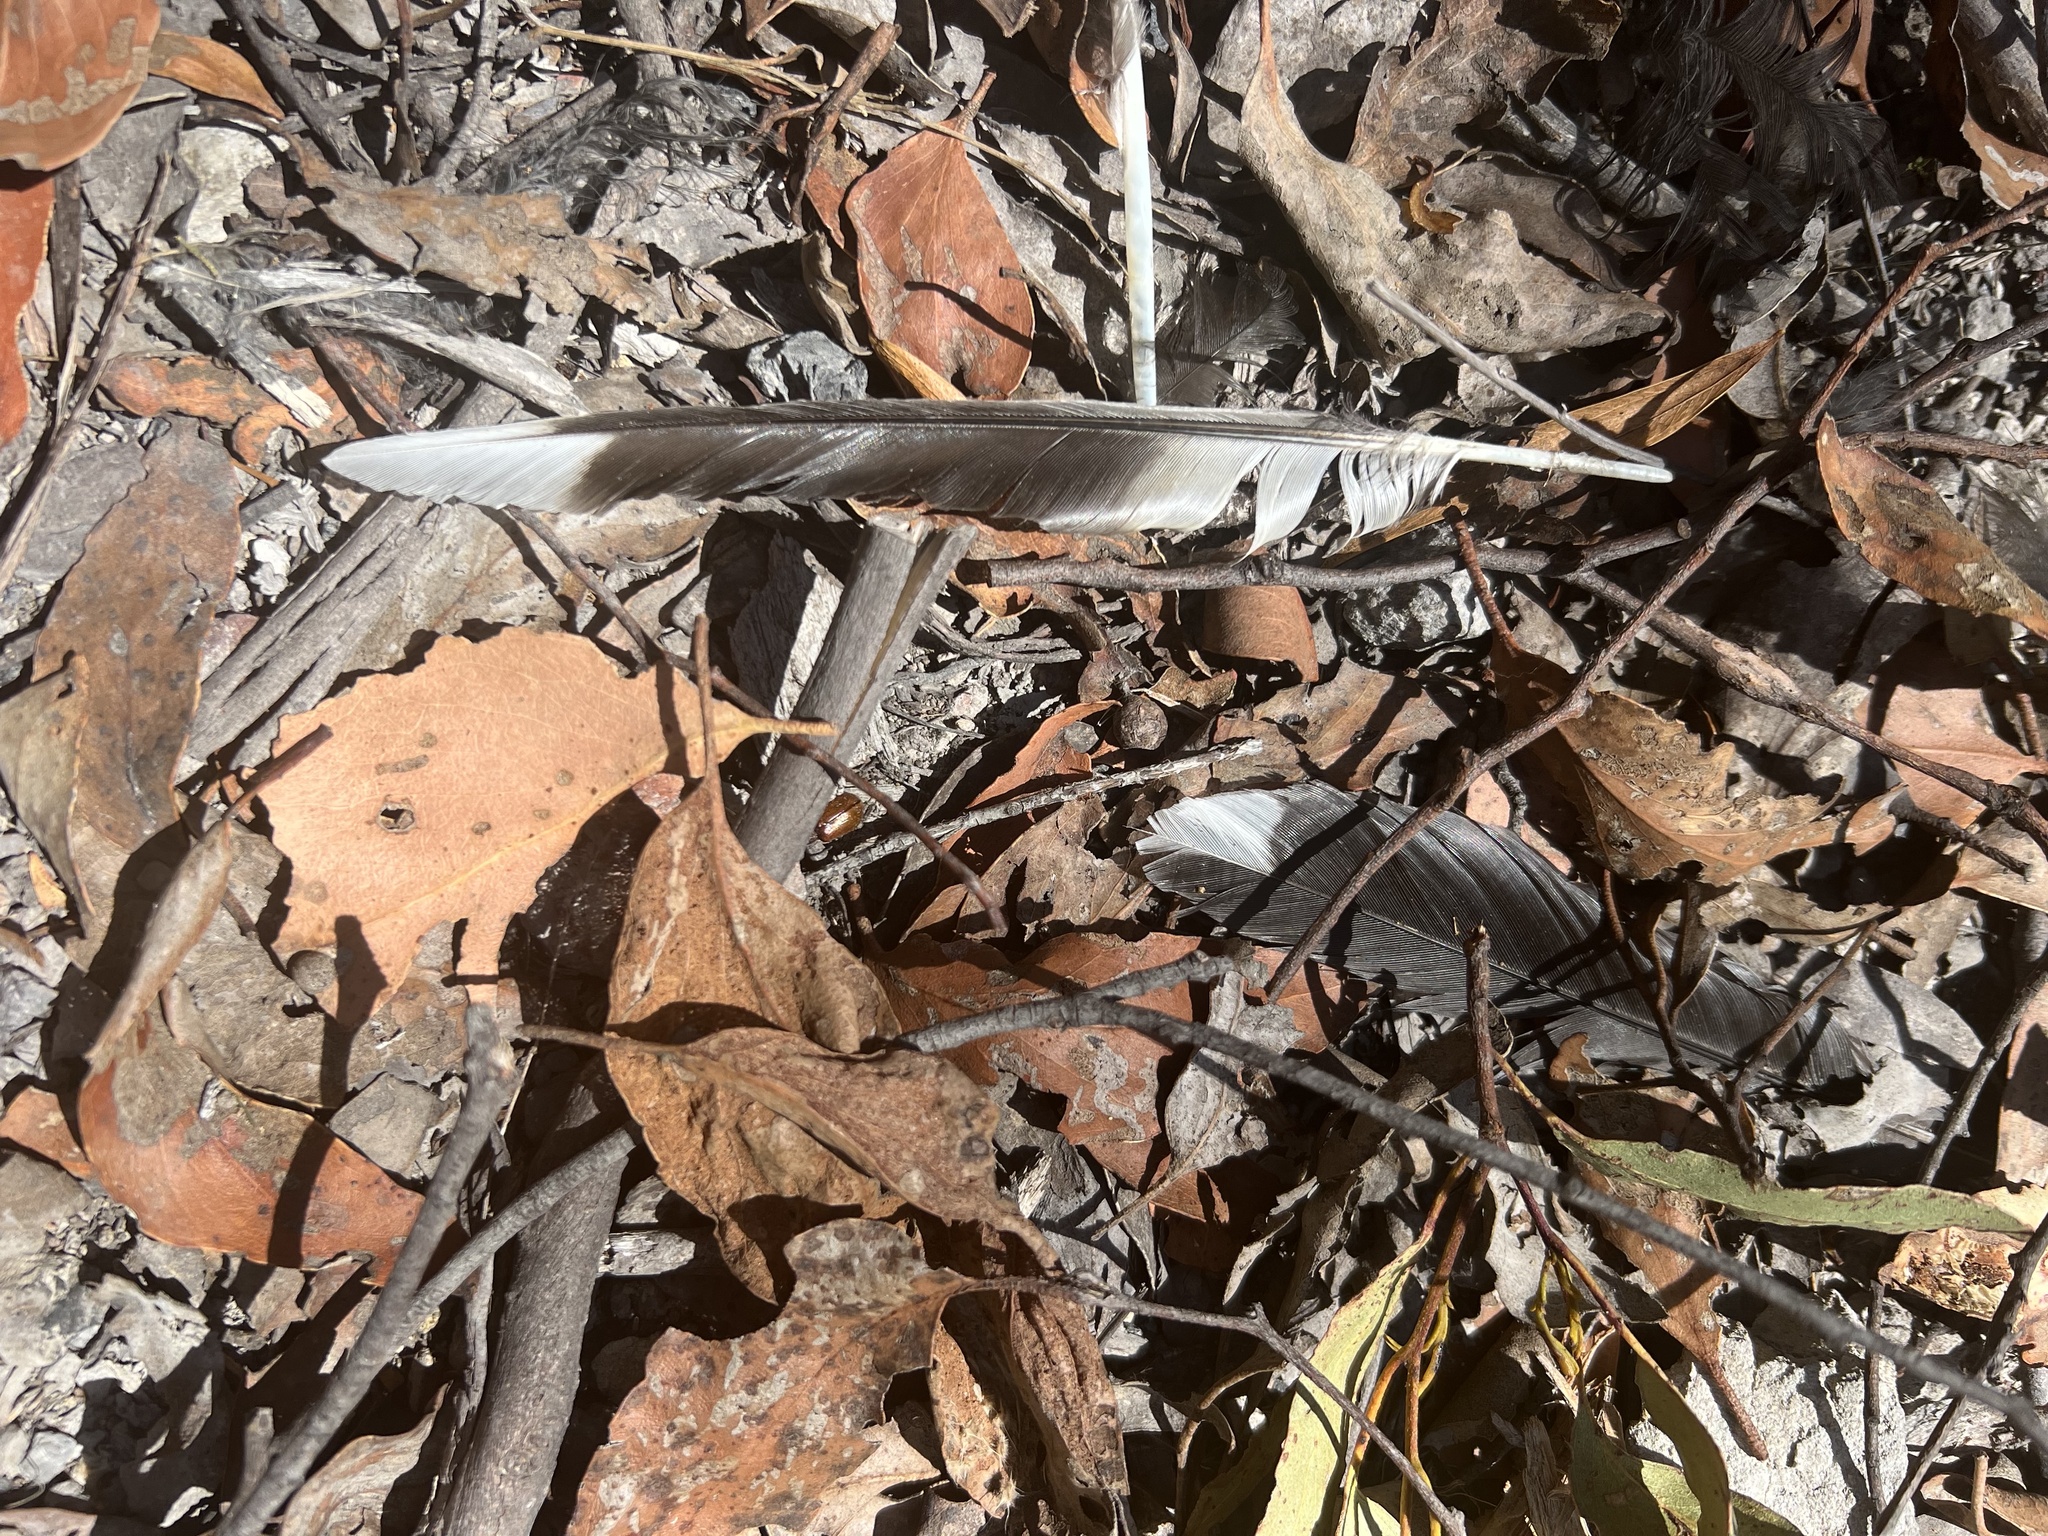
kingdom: Animalia
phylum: Chordata
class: Aves
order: Passeriformes
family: Cracticidae
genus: Strepera
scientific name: Strepera fuliginosa
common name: Black currawong
